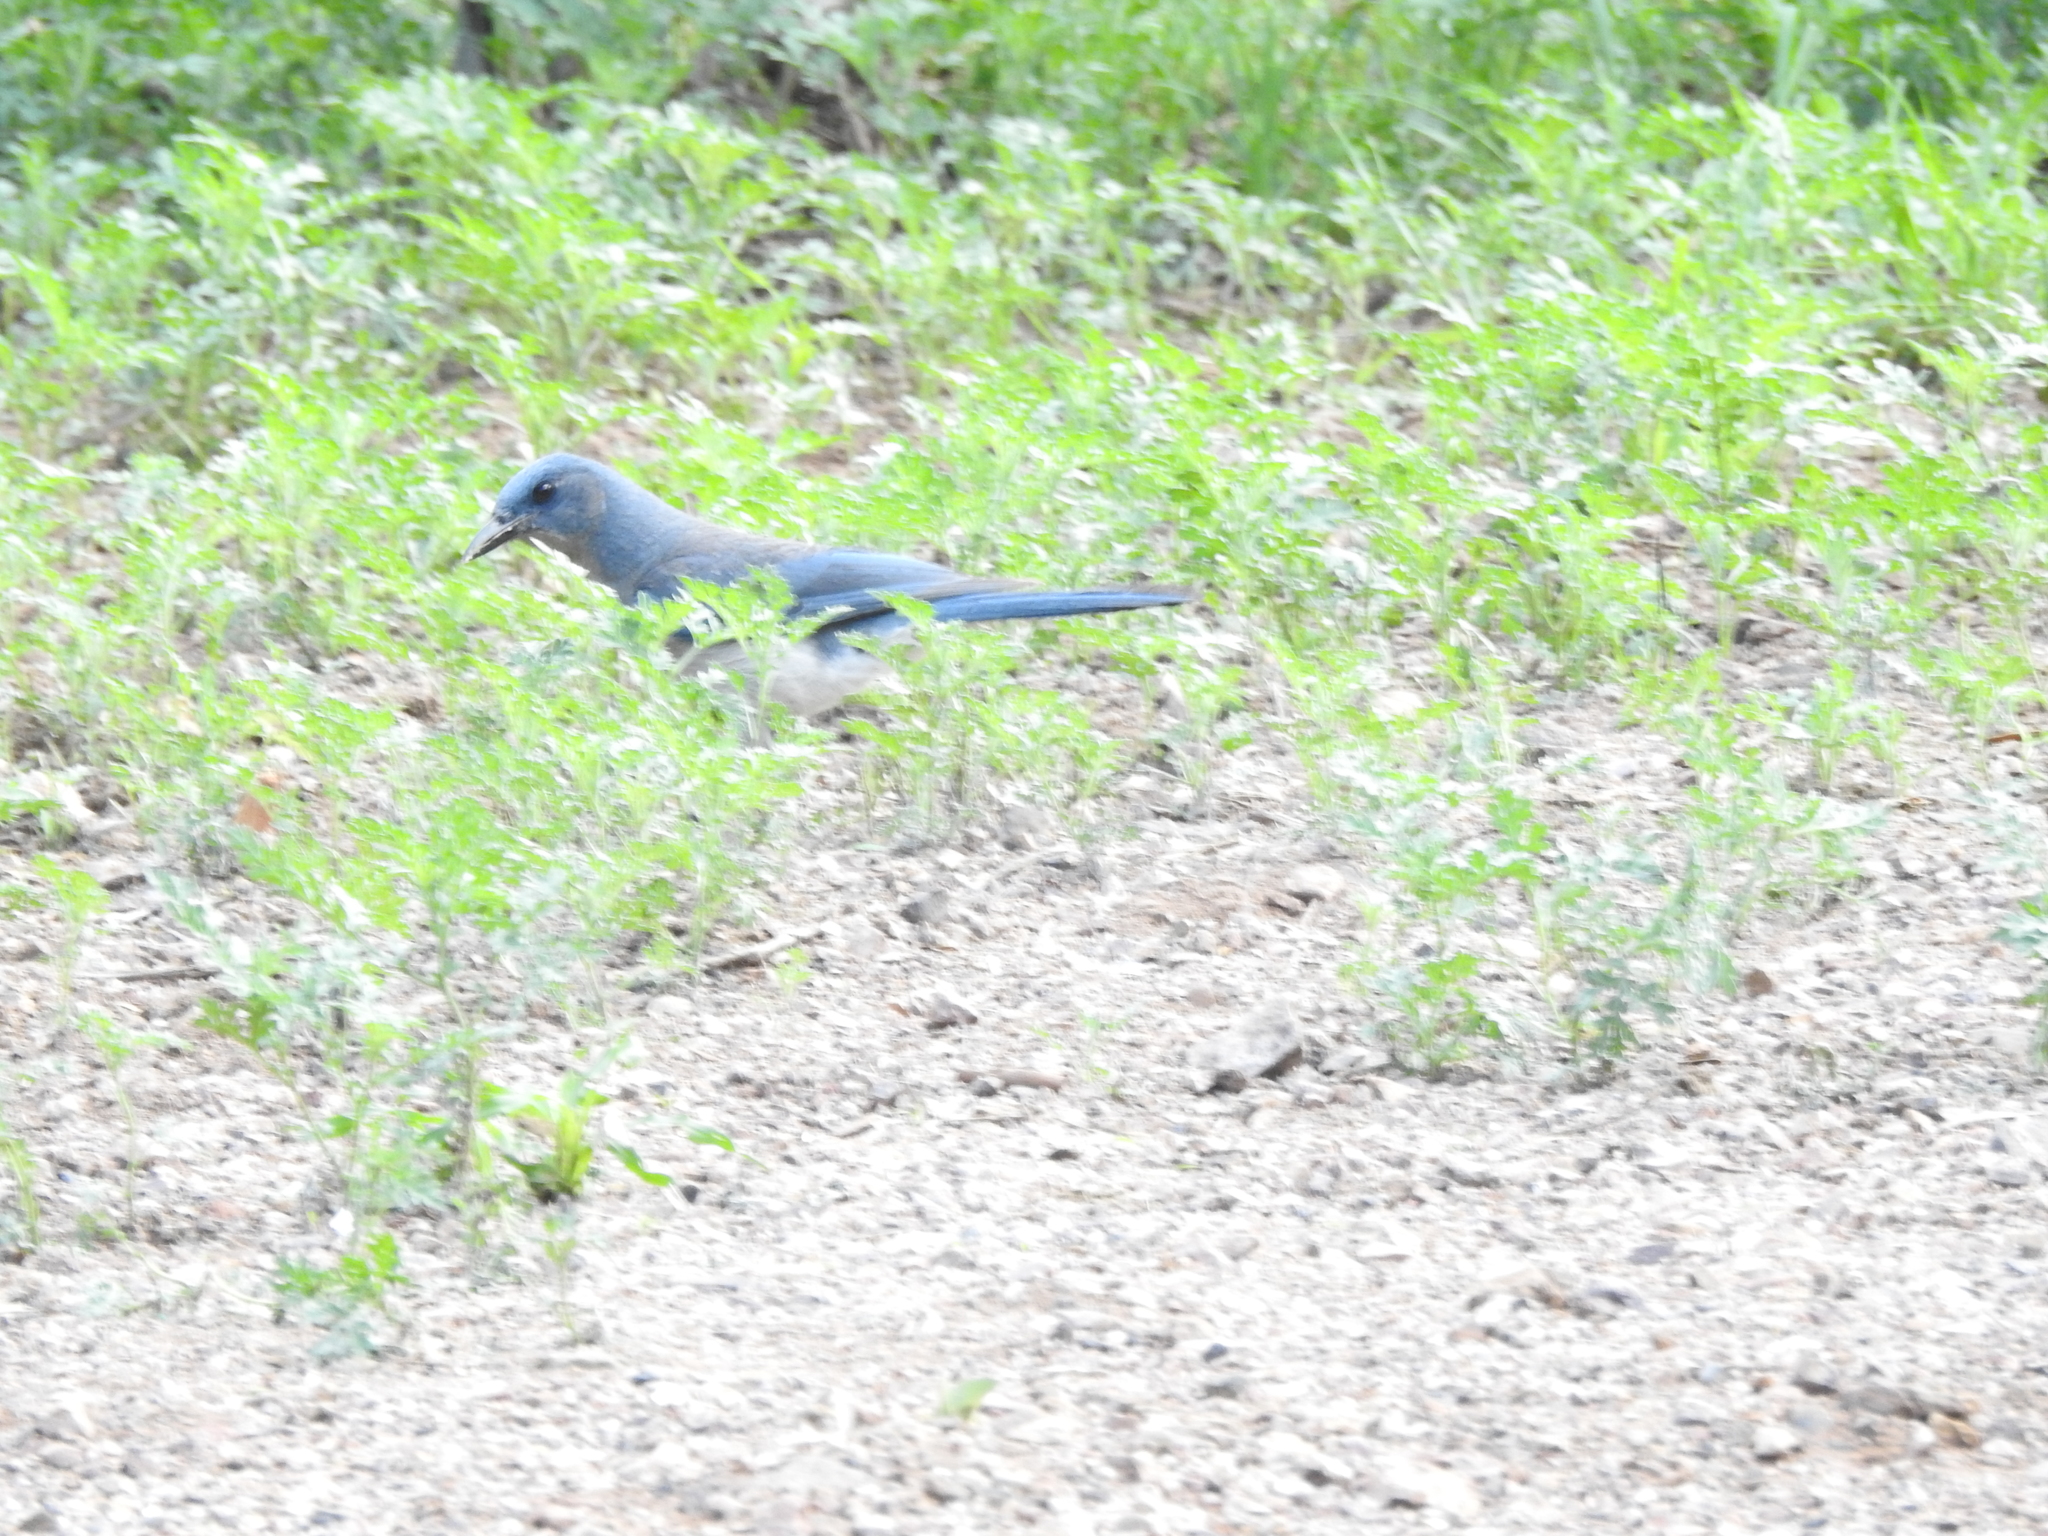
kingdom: Animalia
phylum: Chordata
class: Aves
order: Passeriformes
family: Corvidae
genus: Aphelocoma
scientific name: Aphelocoma wollweberi
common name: Mexican jay
